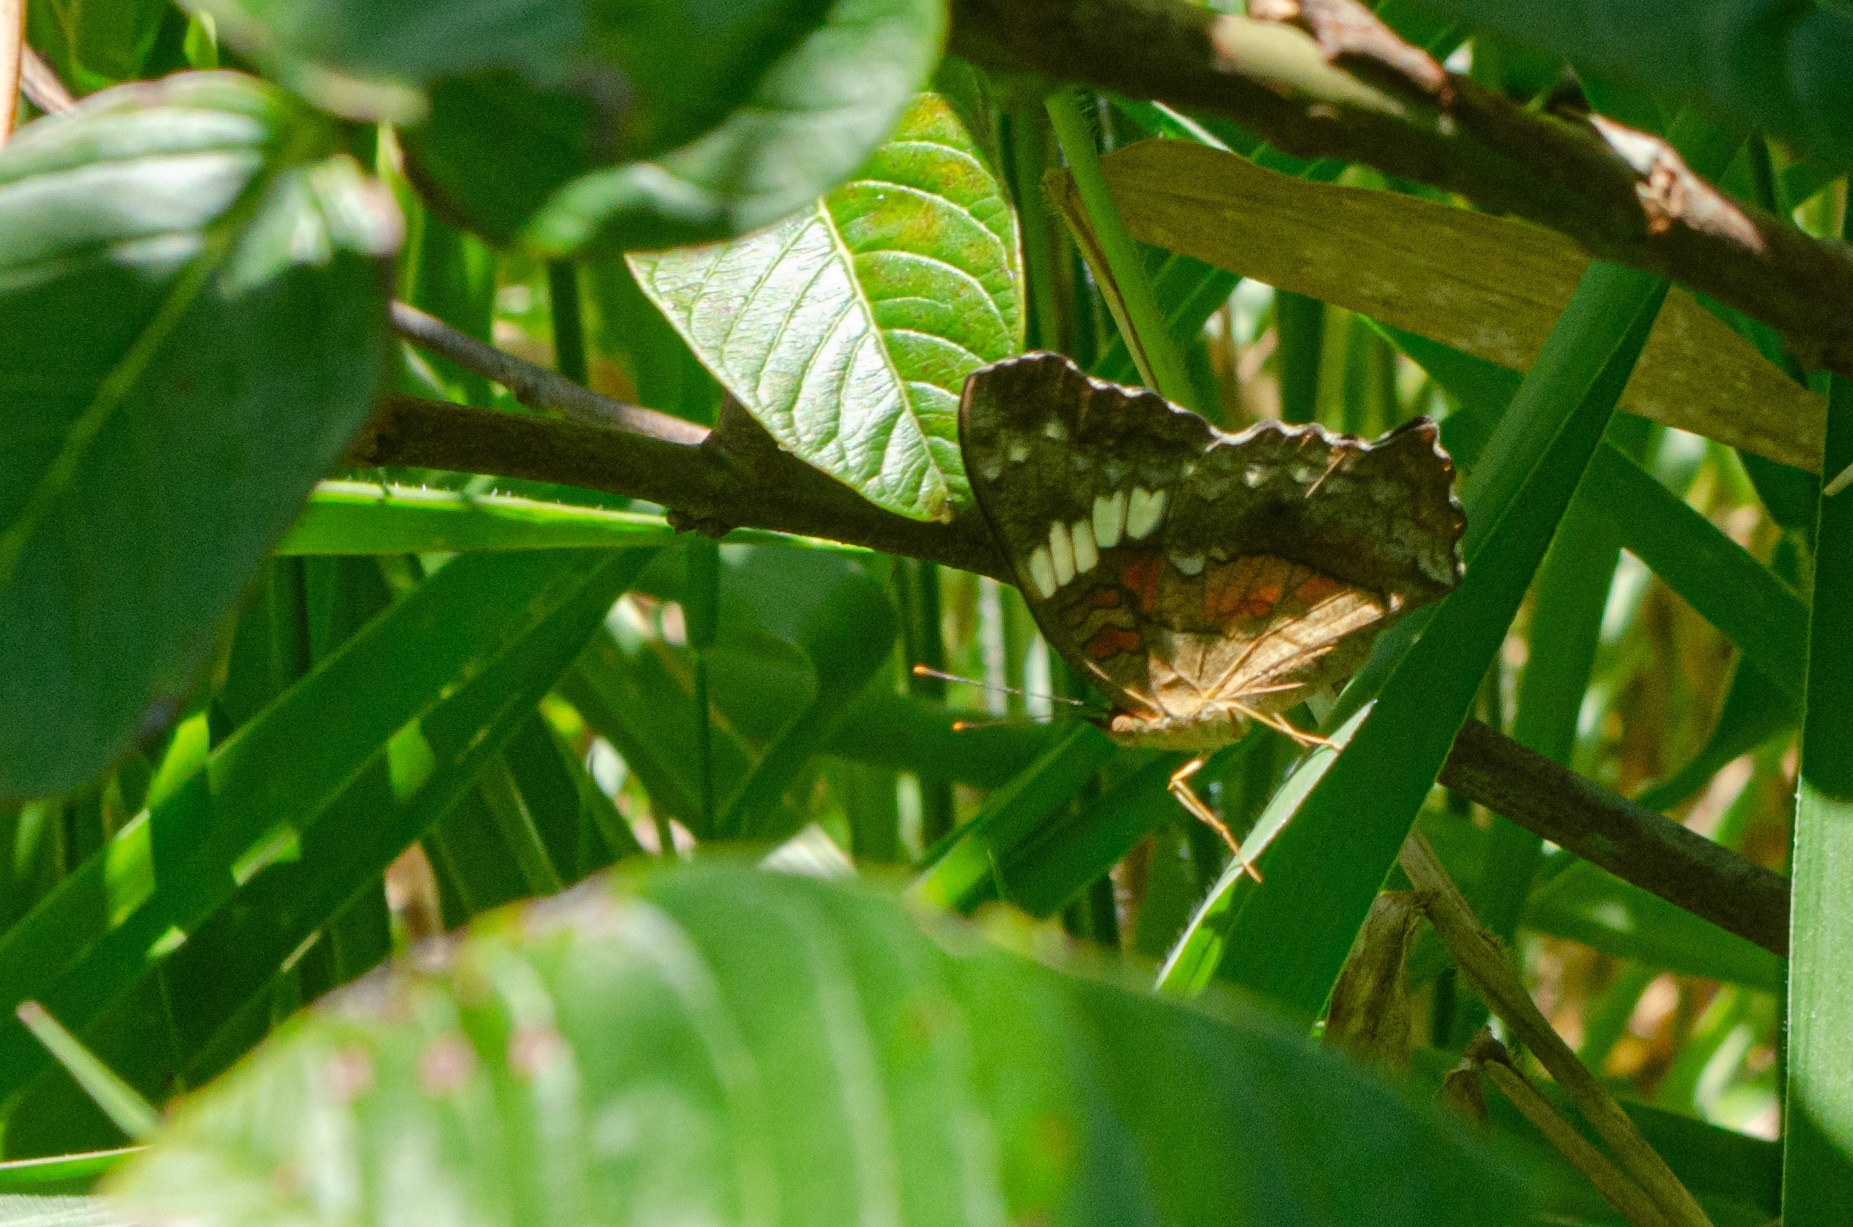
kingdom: Animalia
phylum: Arthropoda
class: Insecta
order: Lepidoptera
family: Nymphalidae
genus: Anartia
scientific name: Anartia amathea
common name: Red peacock
